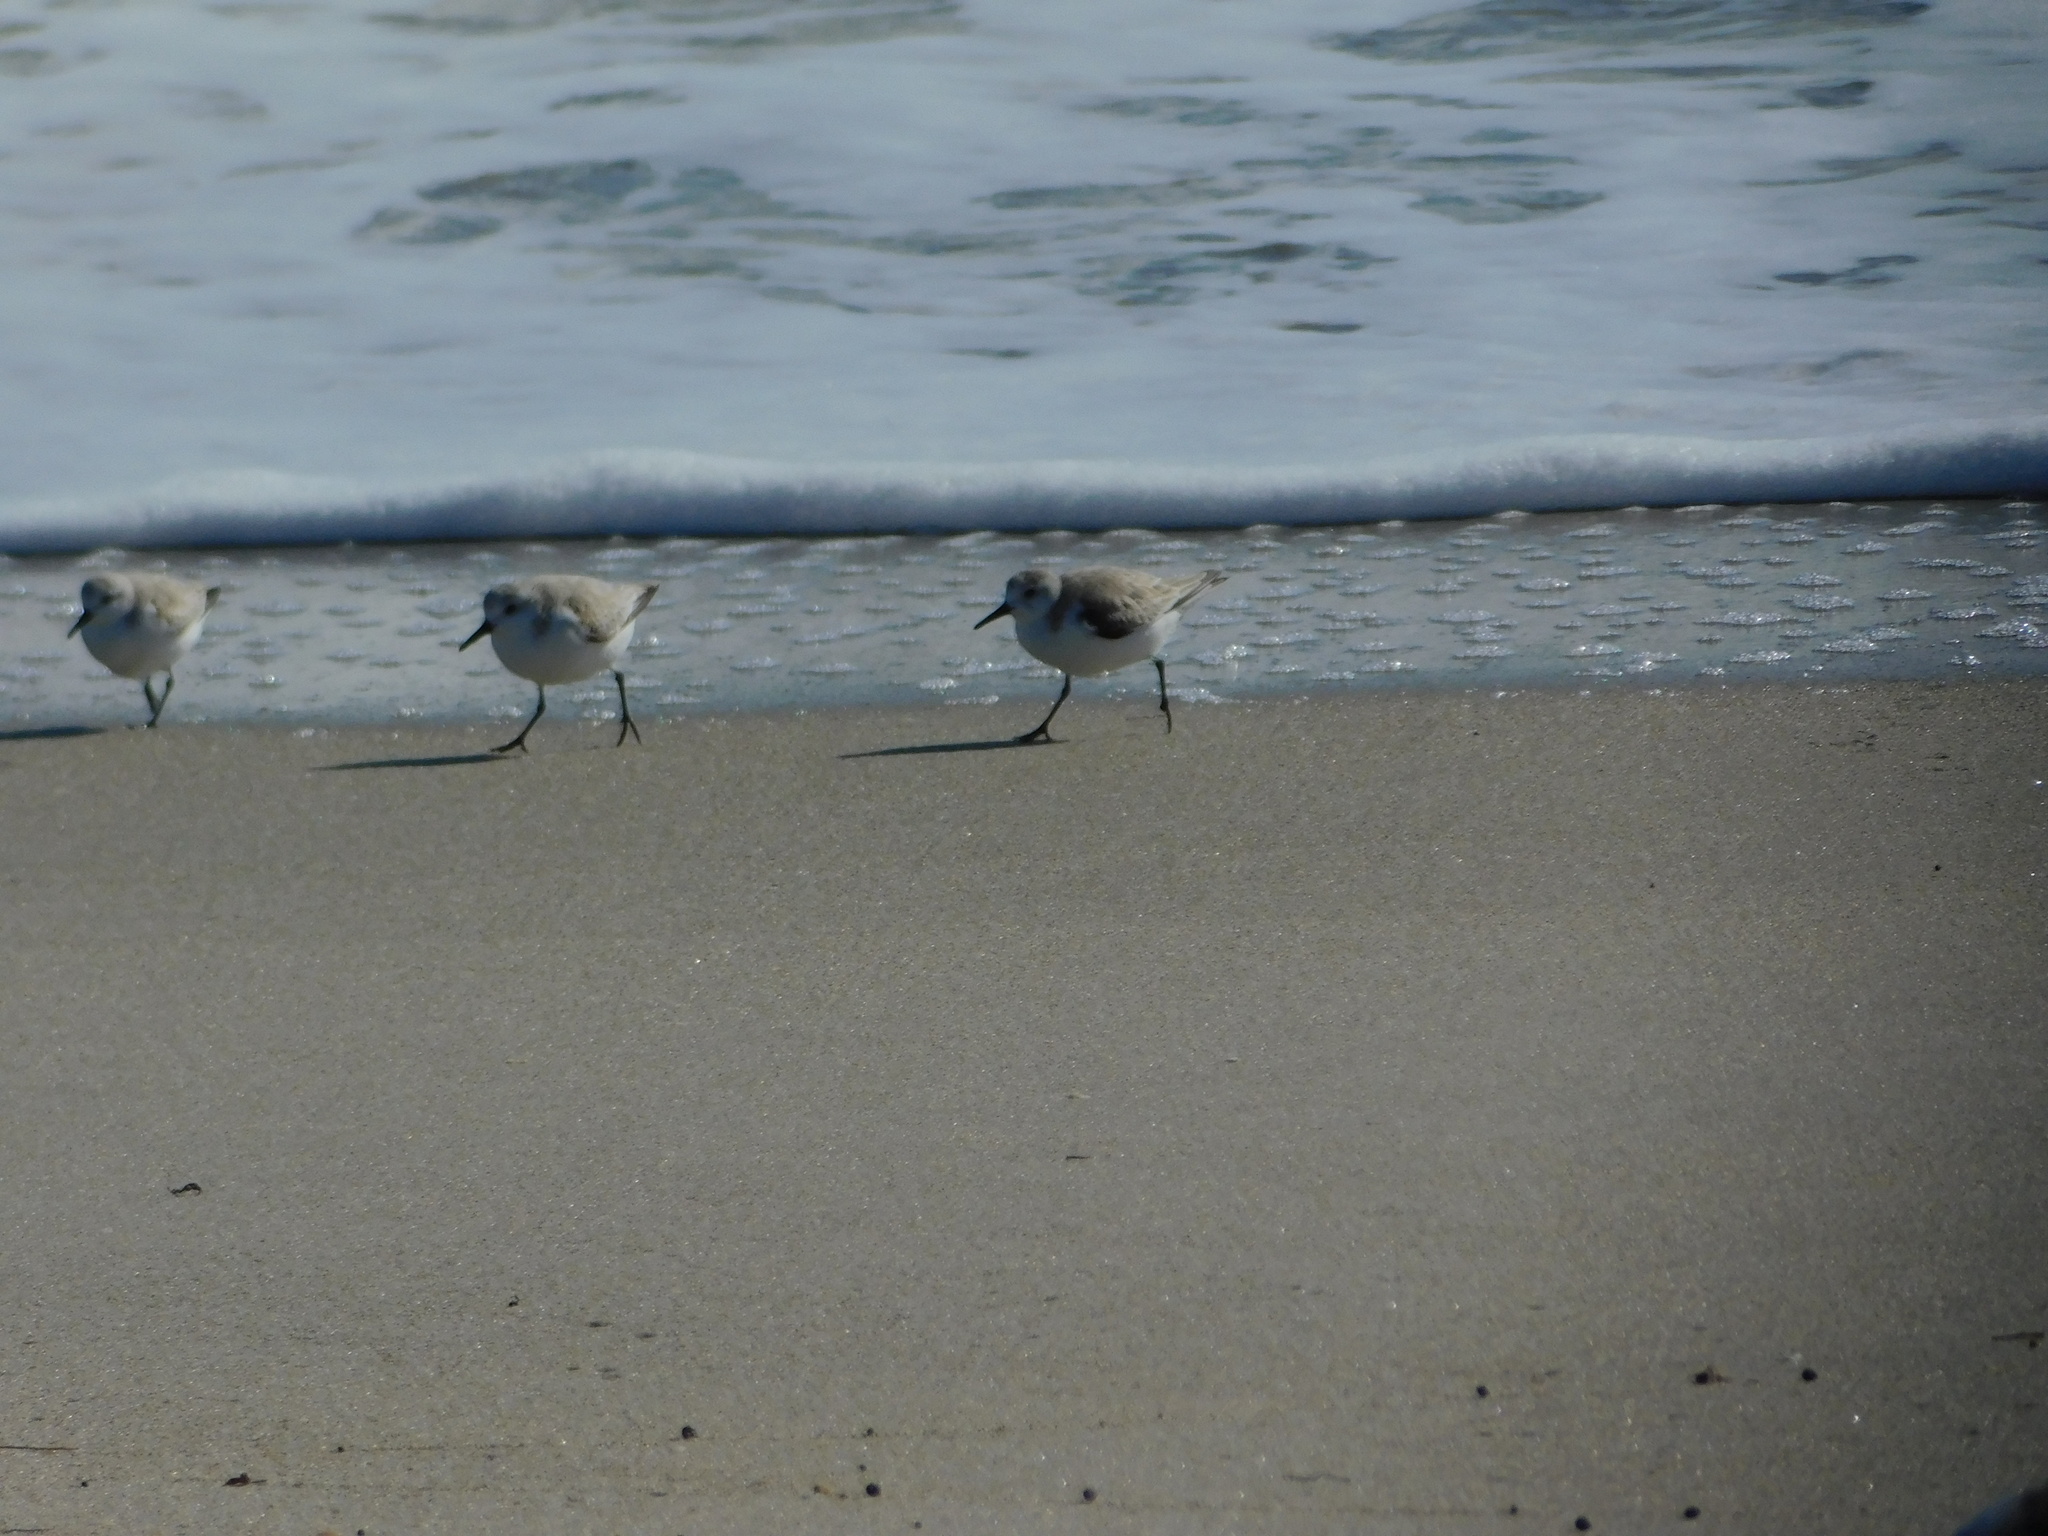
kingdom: Animalia
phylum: Chordata
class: Aves
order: Charadriiformes
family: Scolopacidae
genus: Calidris
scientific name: Calidris alba
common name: Sanderling
